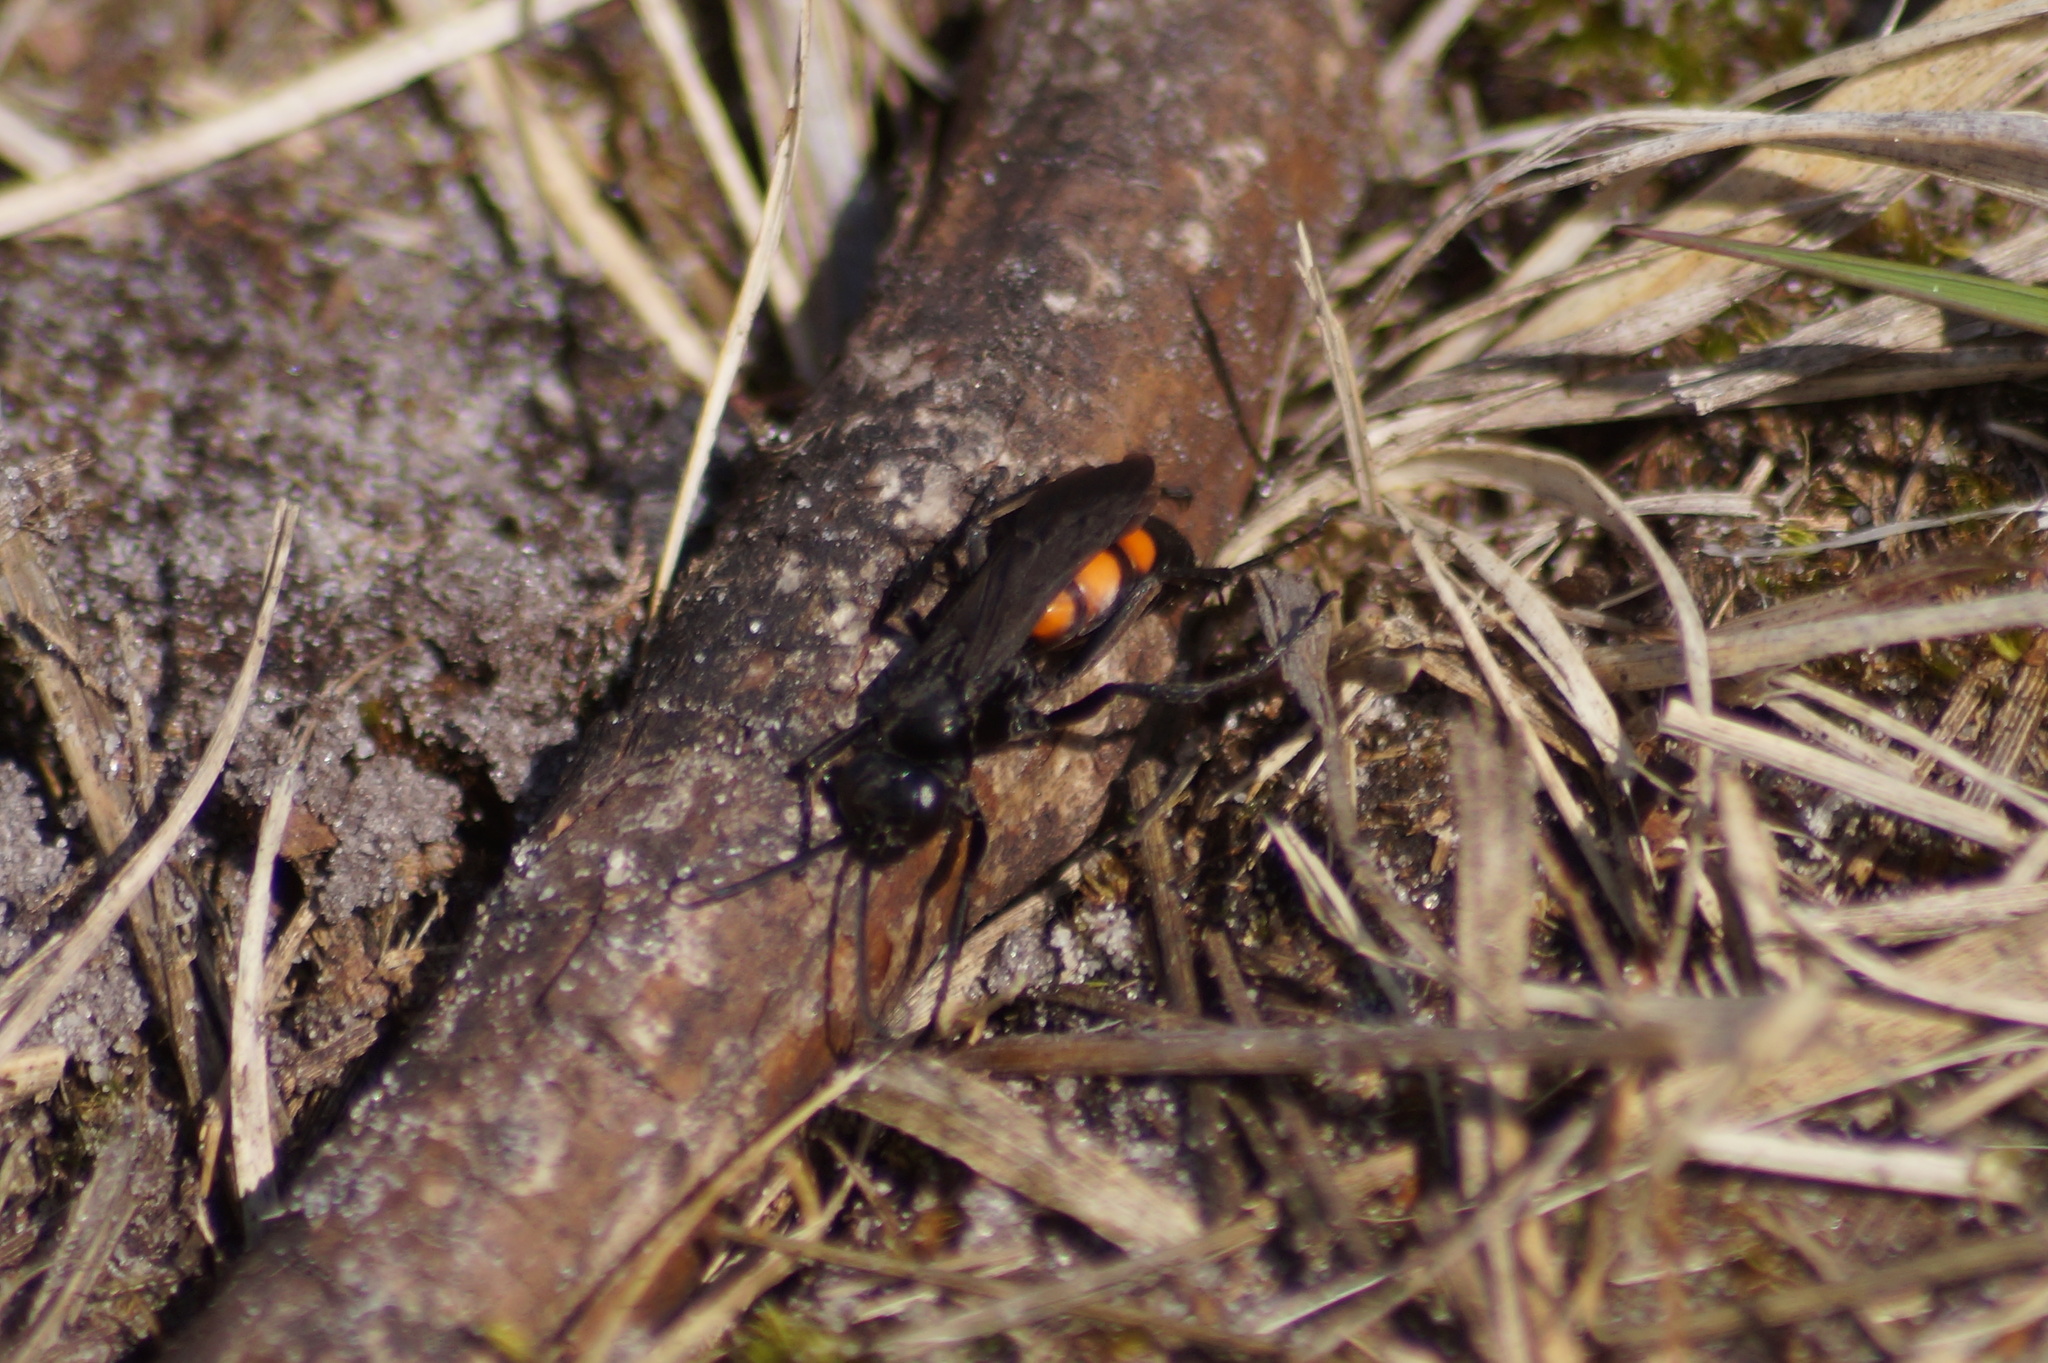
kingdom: Animalia
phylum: Arthropoda
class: Insecta
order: Hymenoptera
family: Pompilidae
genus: Anoplius
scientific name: Anoplius viaticus
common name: Black banded spider wasp
